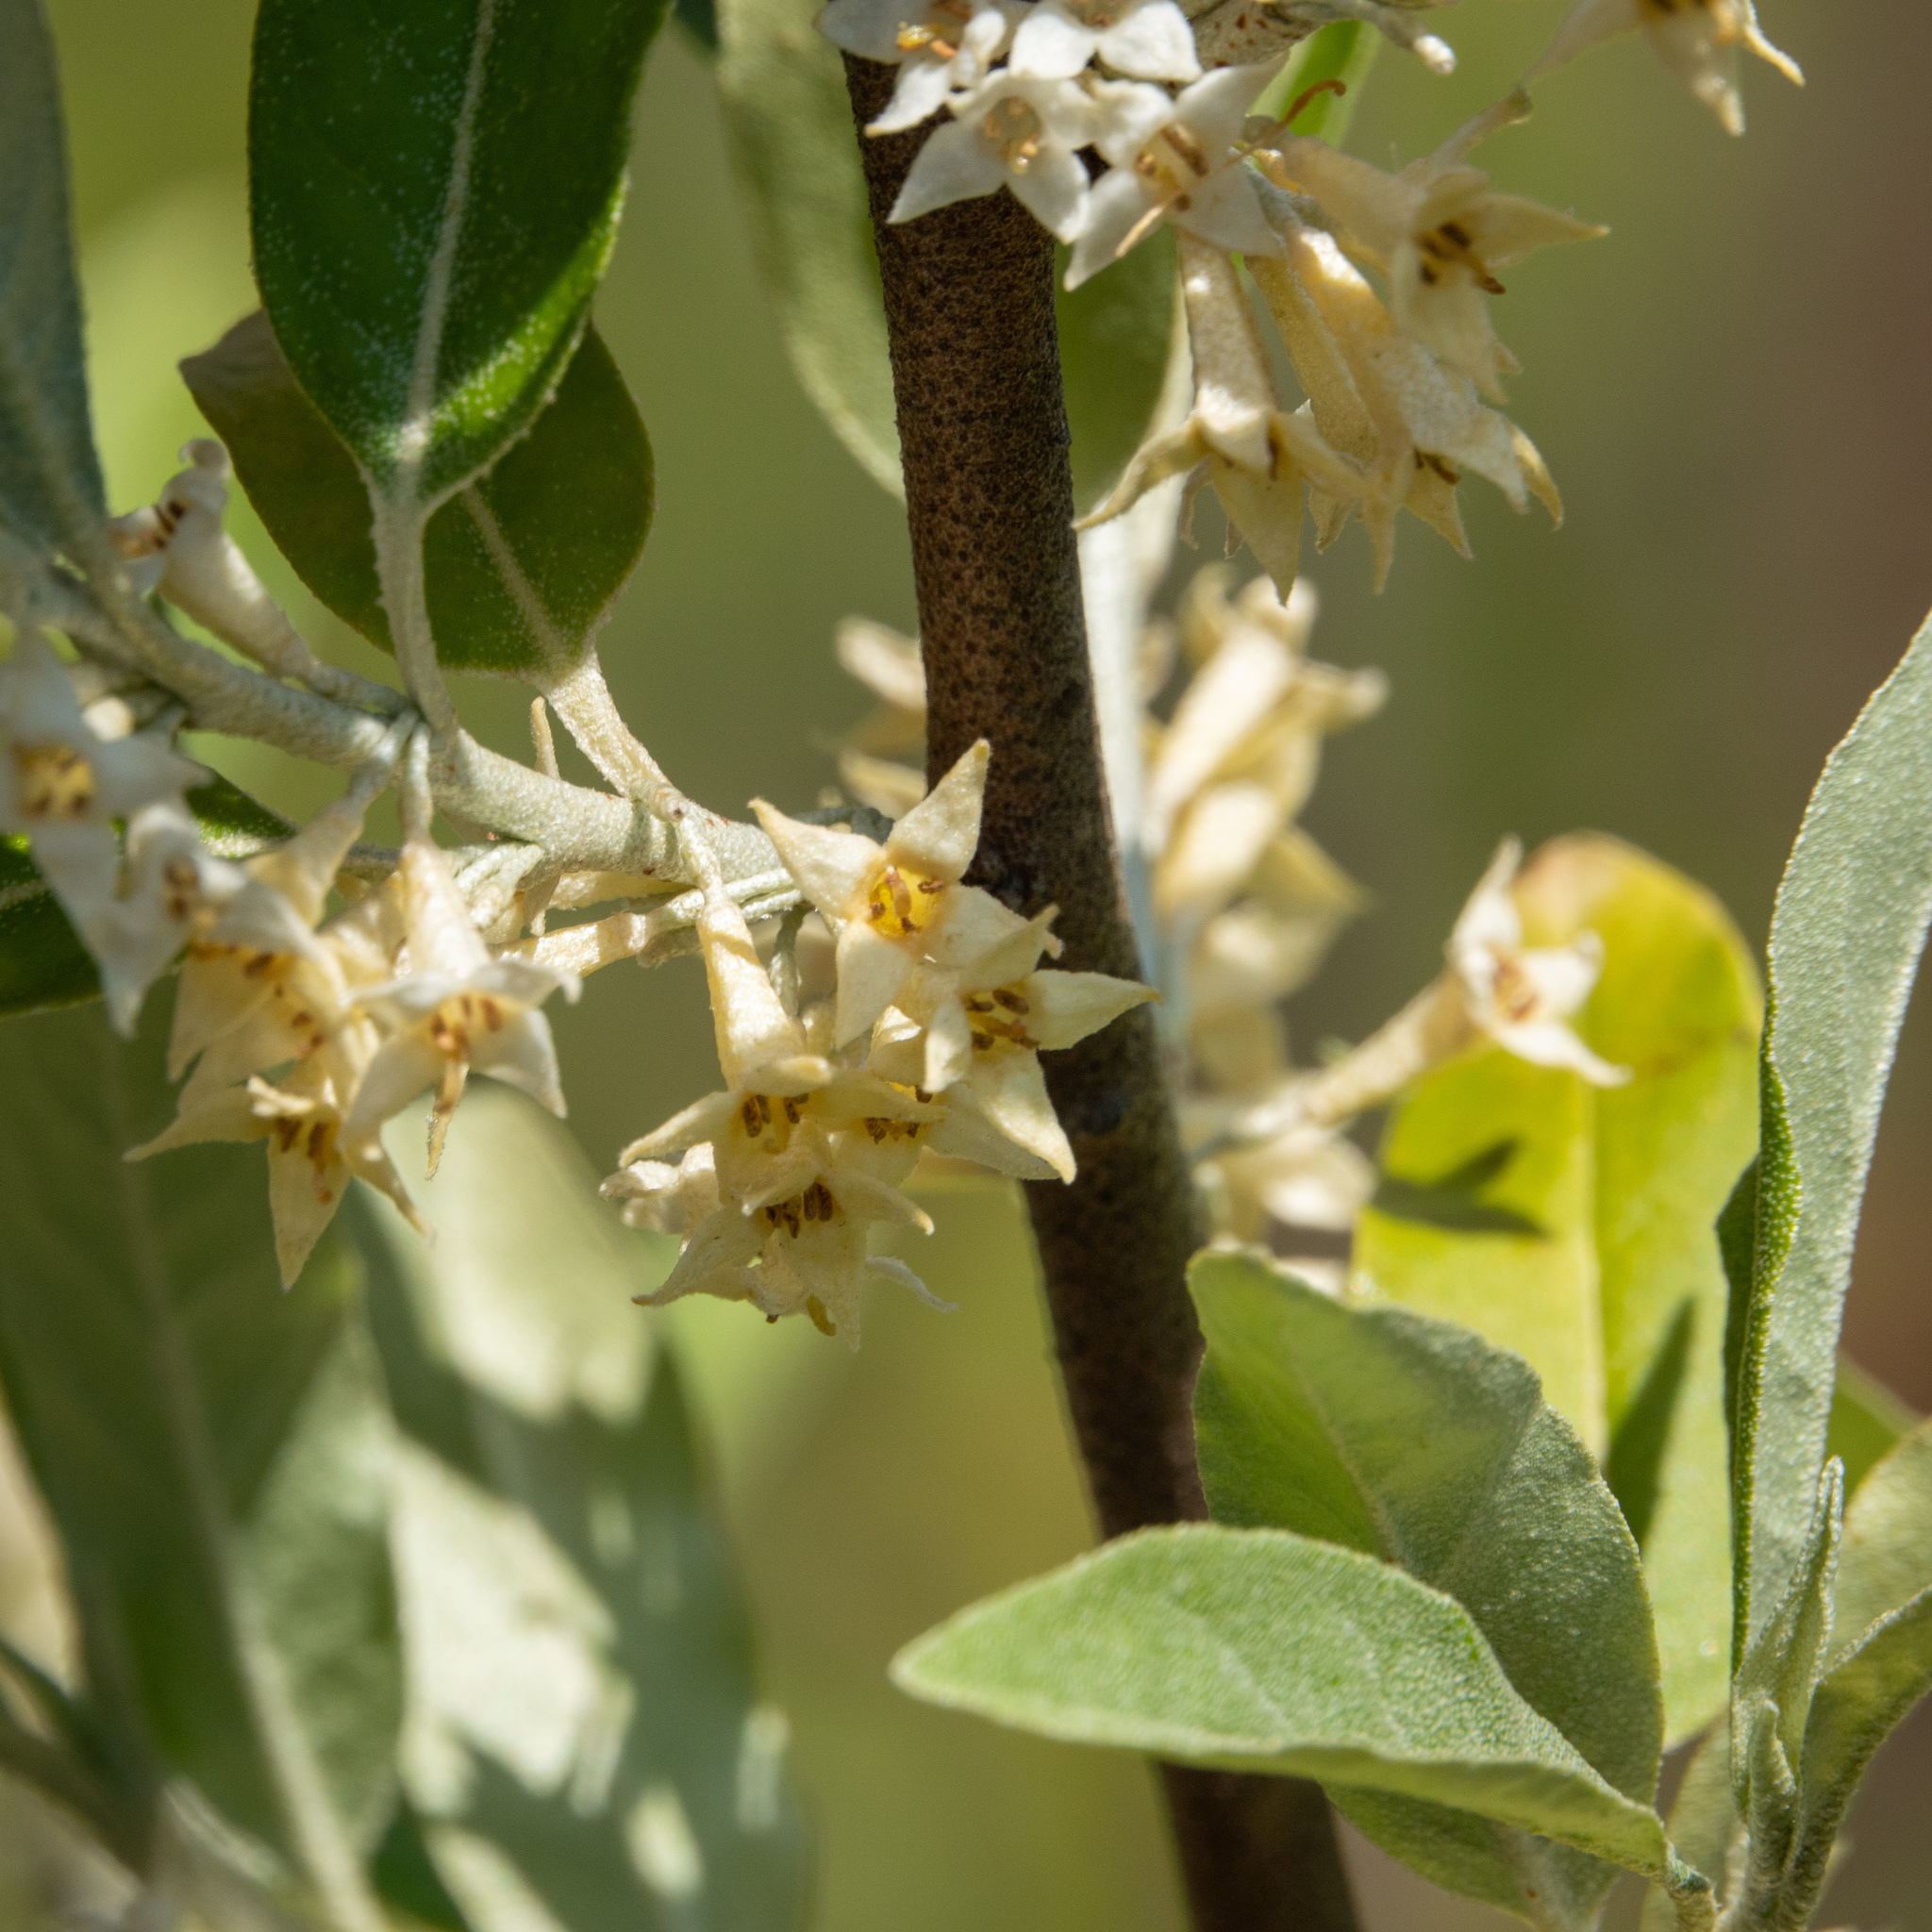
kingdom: Plantae
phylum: Tracheophyta
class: Magnoliopsida
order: Rosales
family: Elaeagnaceae
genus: Elaeagnus
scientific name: Elaeagnus umbellata
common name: Autumn olive
